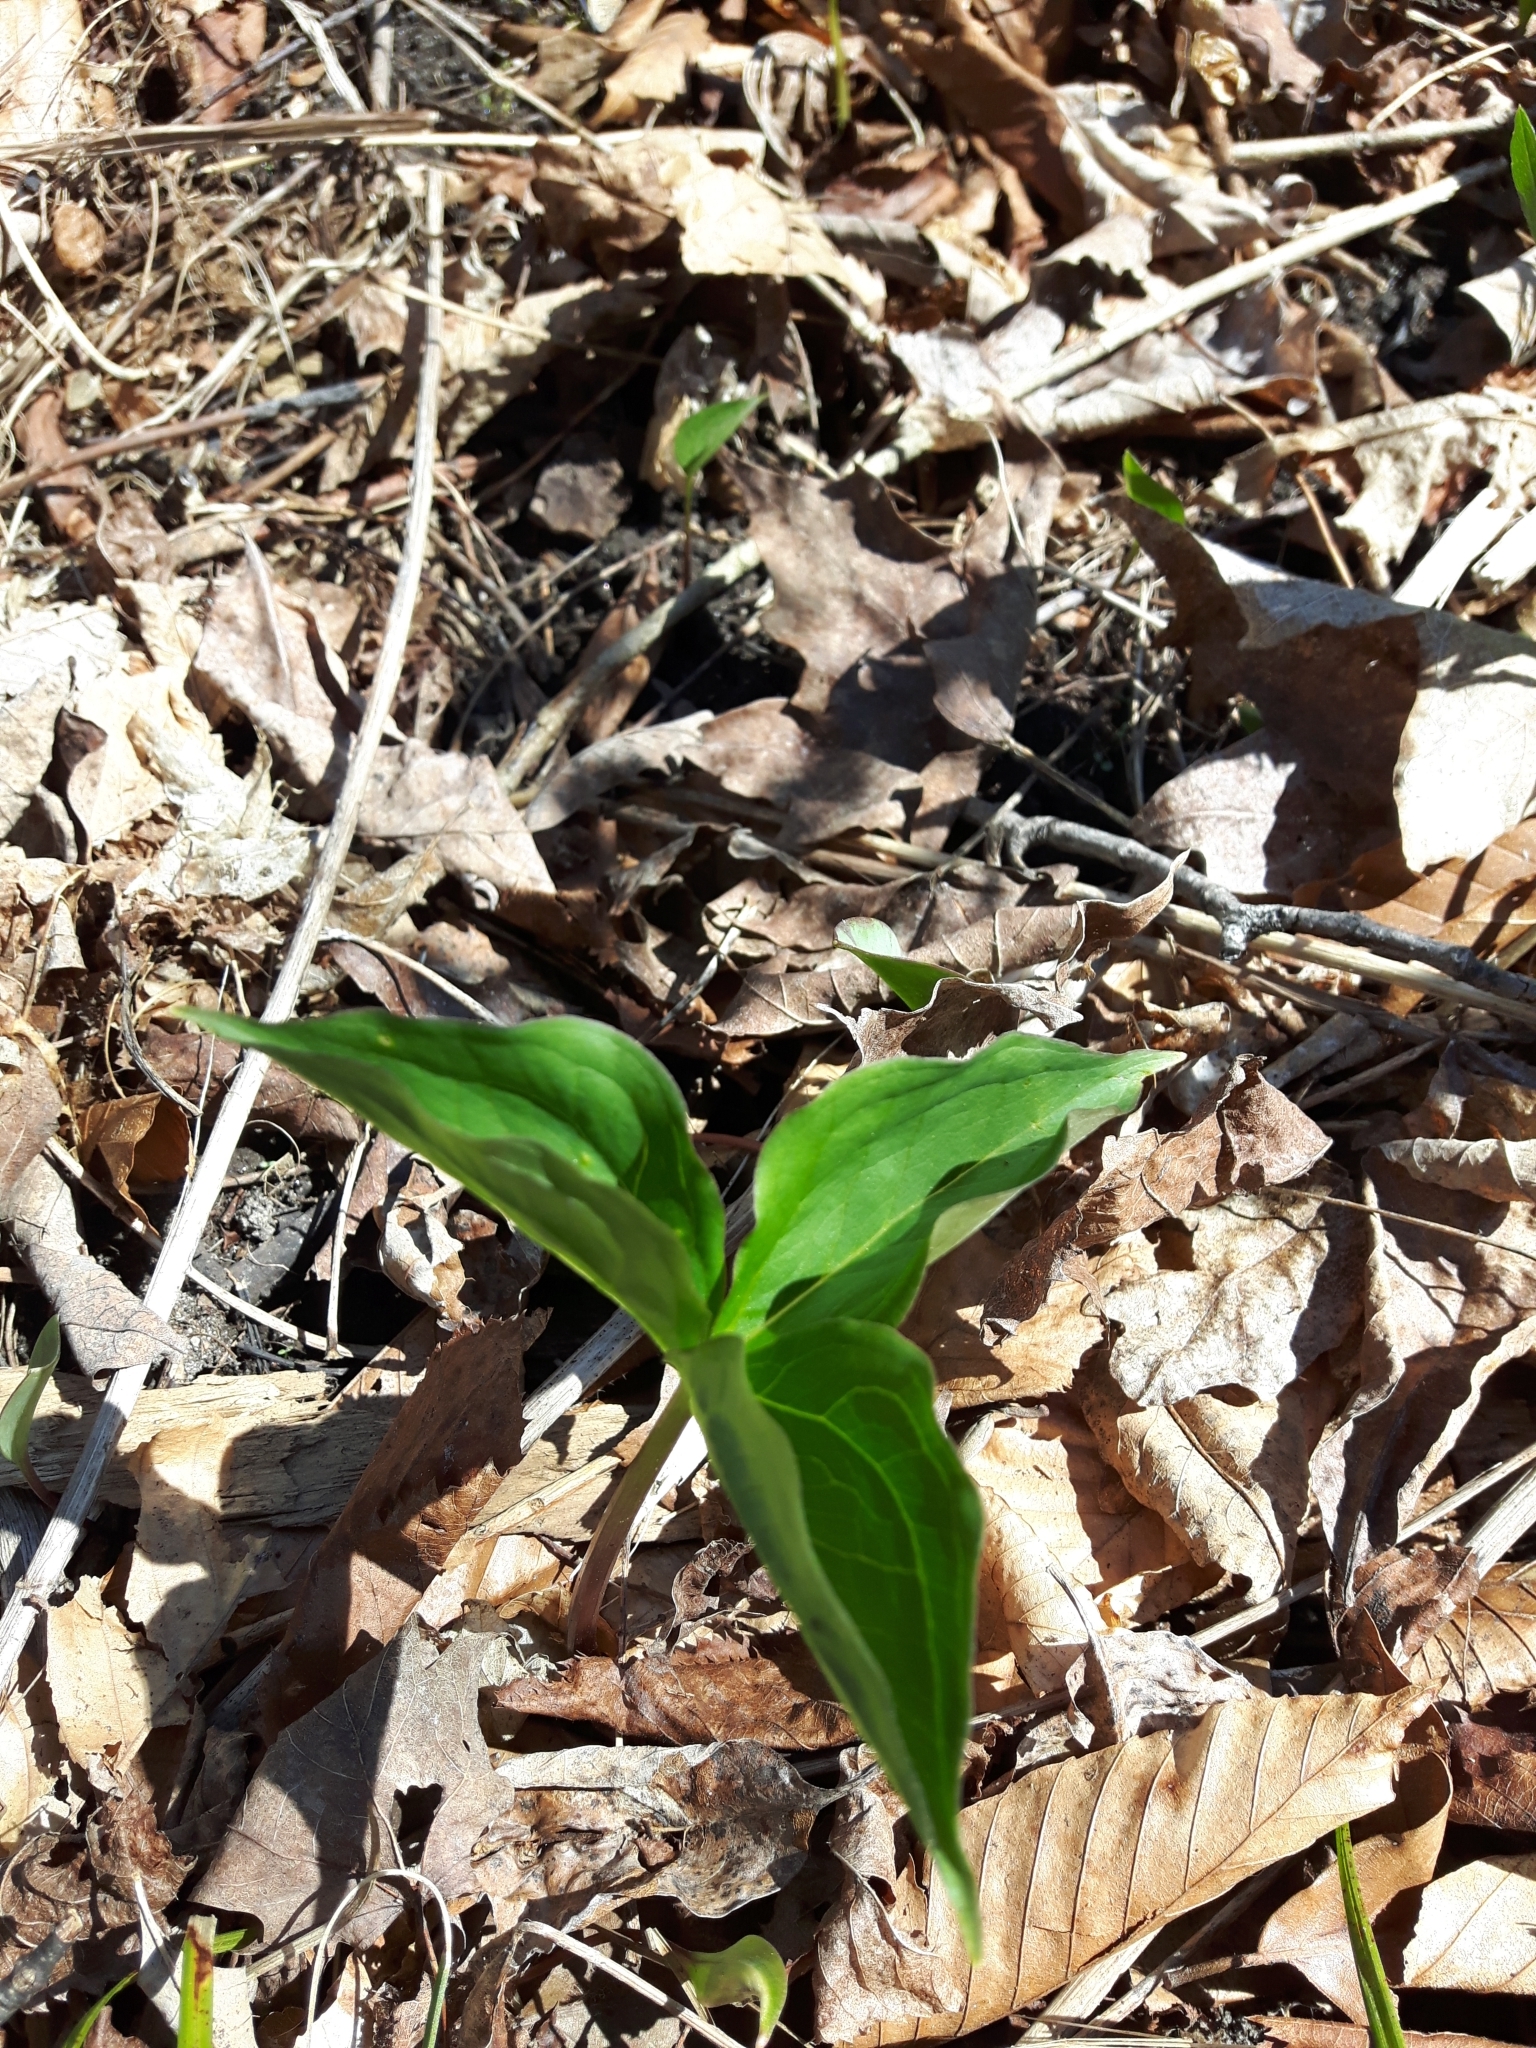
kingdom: Plantae
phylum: Tracheophyta
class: Liliopsida
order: Liliales
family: Melanthiaceae
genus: Trillium
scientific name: Trillium grandiflorum
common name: Great white trillium
